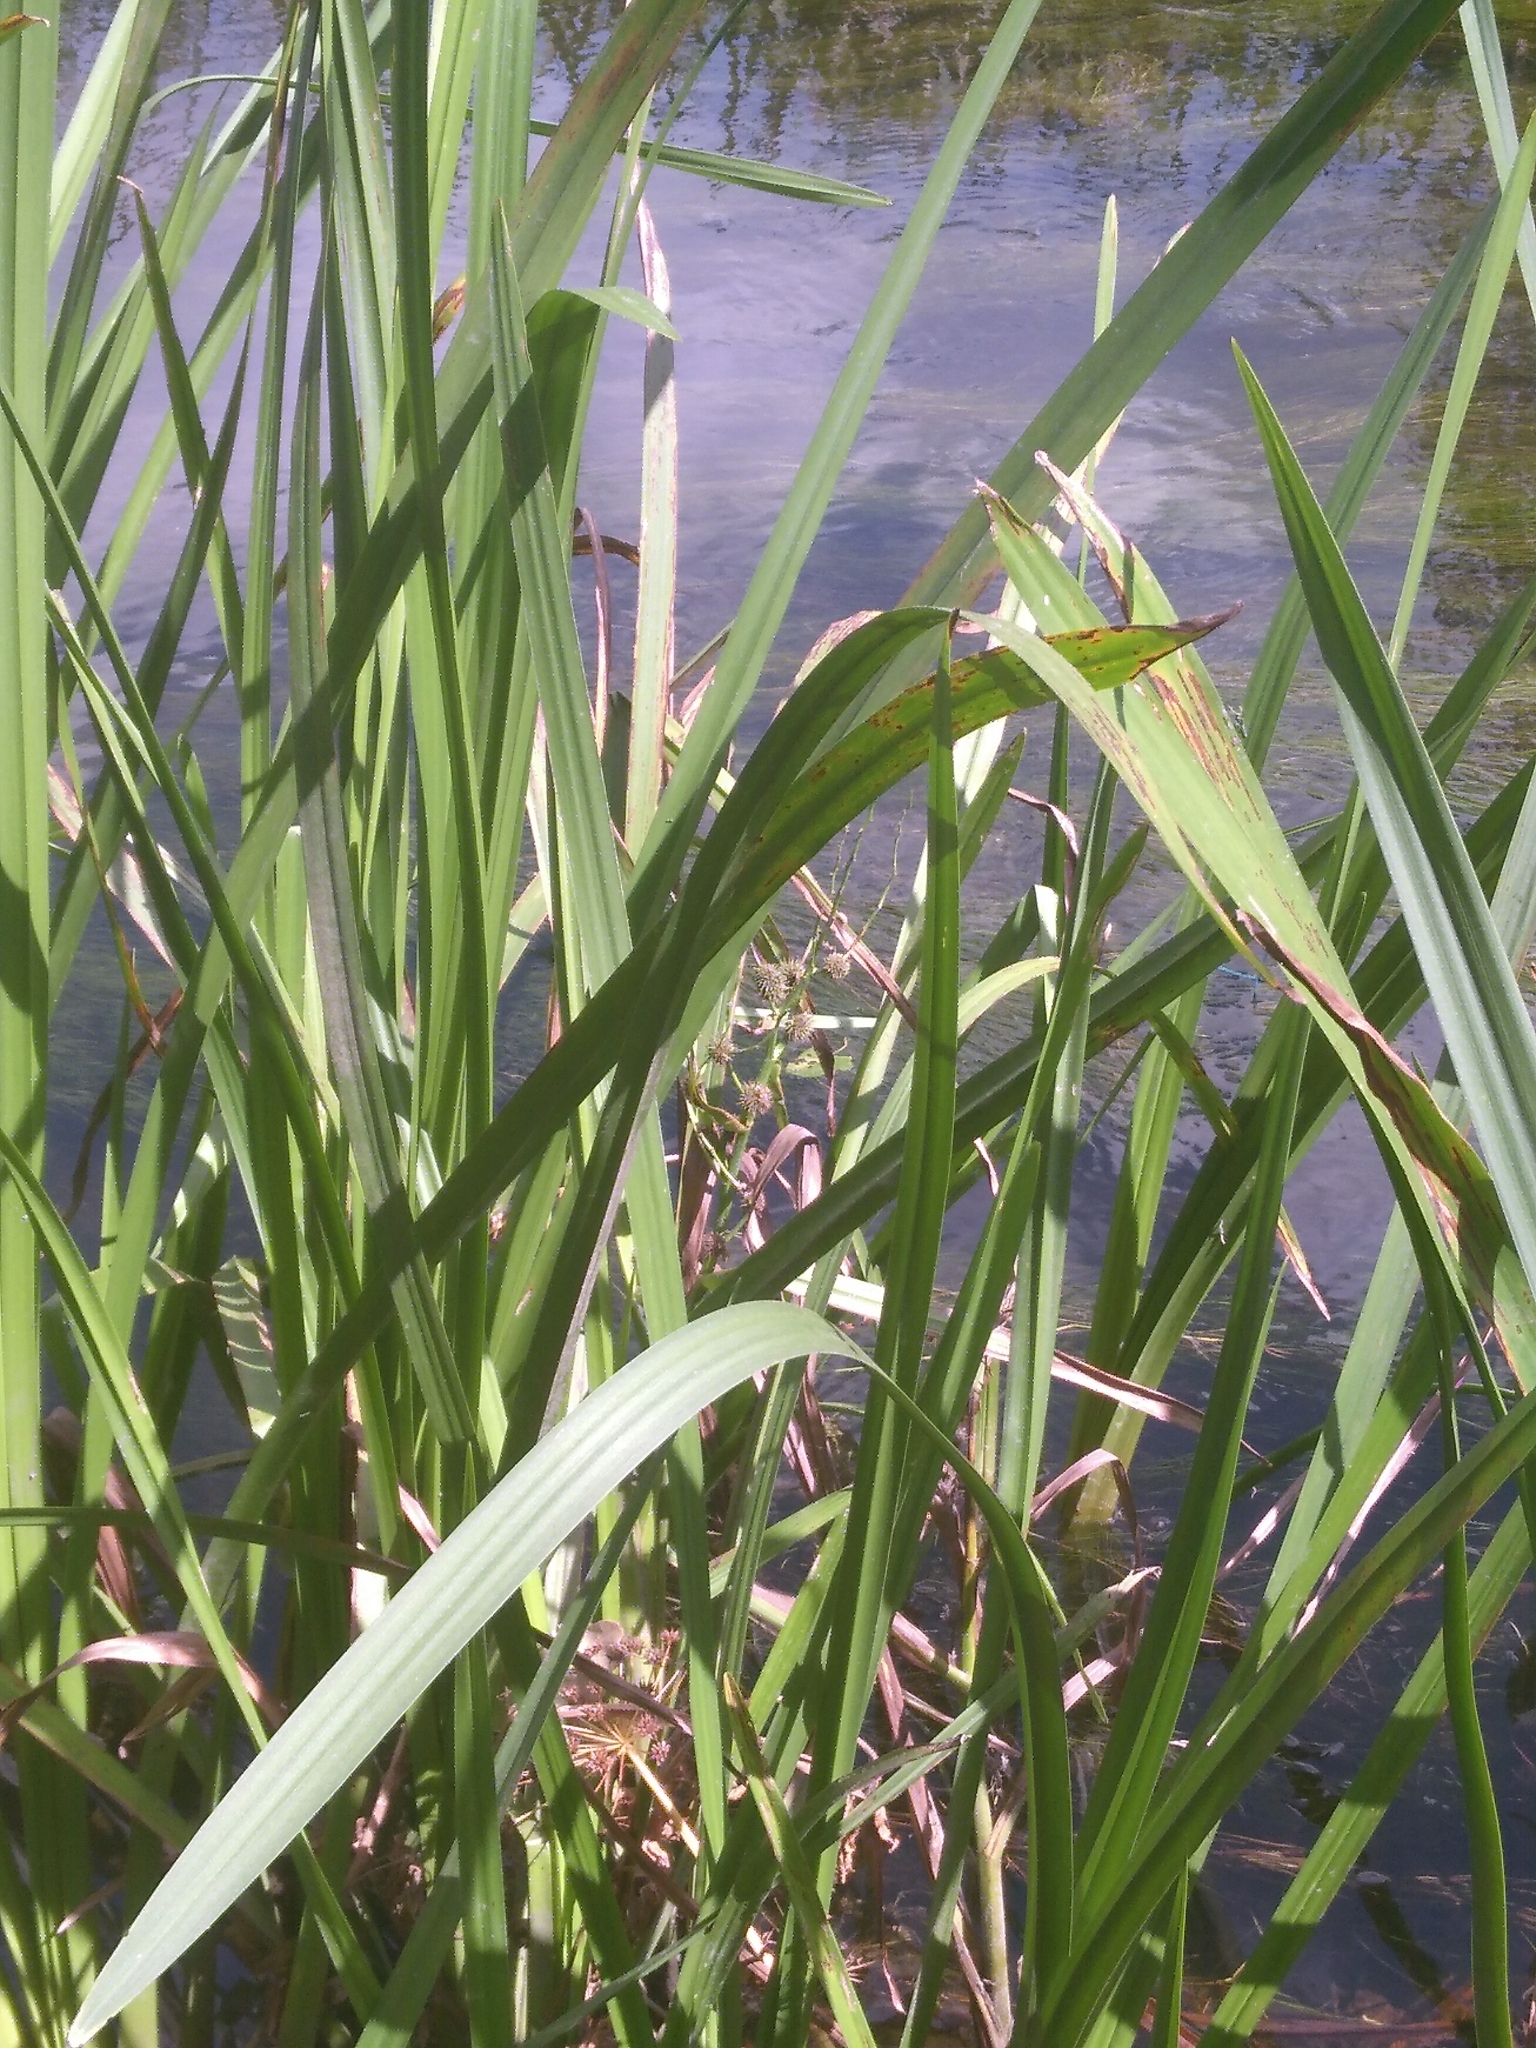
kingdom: Plantae
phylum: Tracheophyta
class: Liliopsida
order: Poales
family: Typhaceae
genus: Sparganium
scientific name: Sparganium erectum
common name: Branched bur-reed
